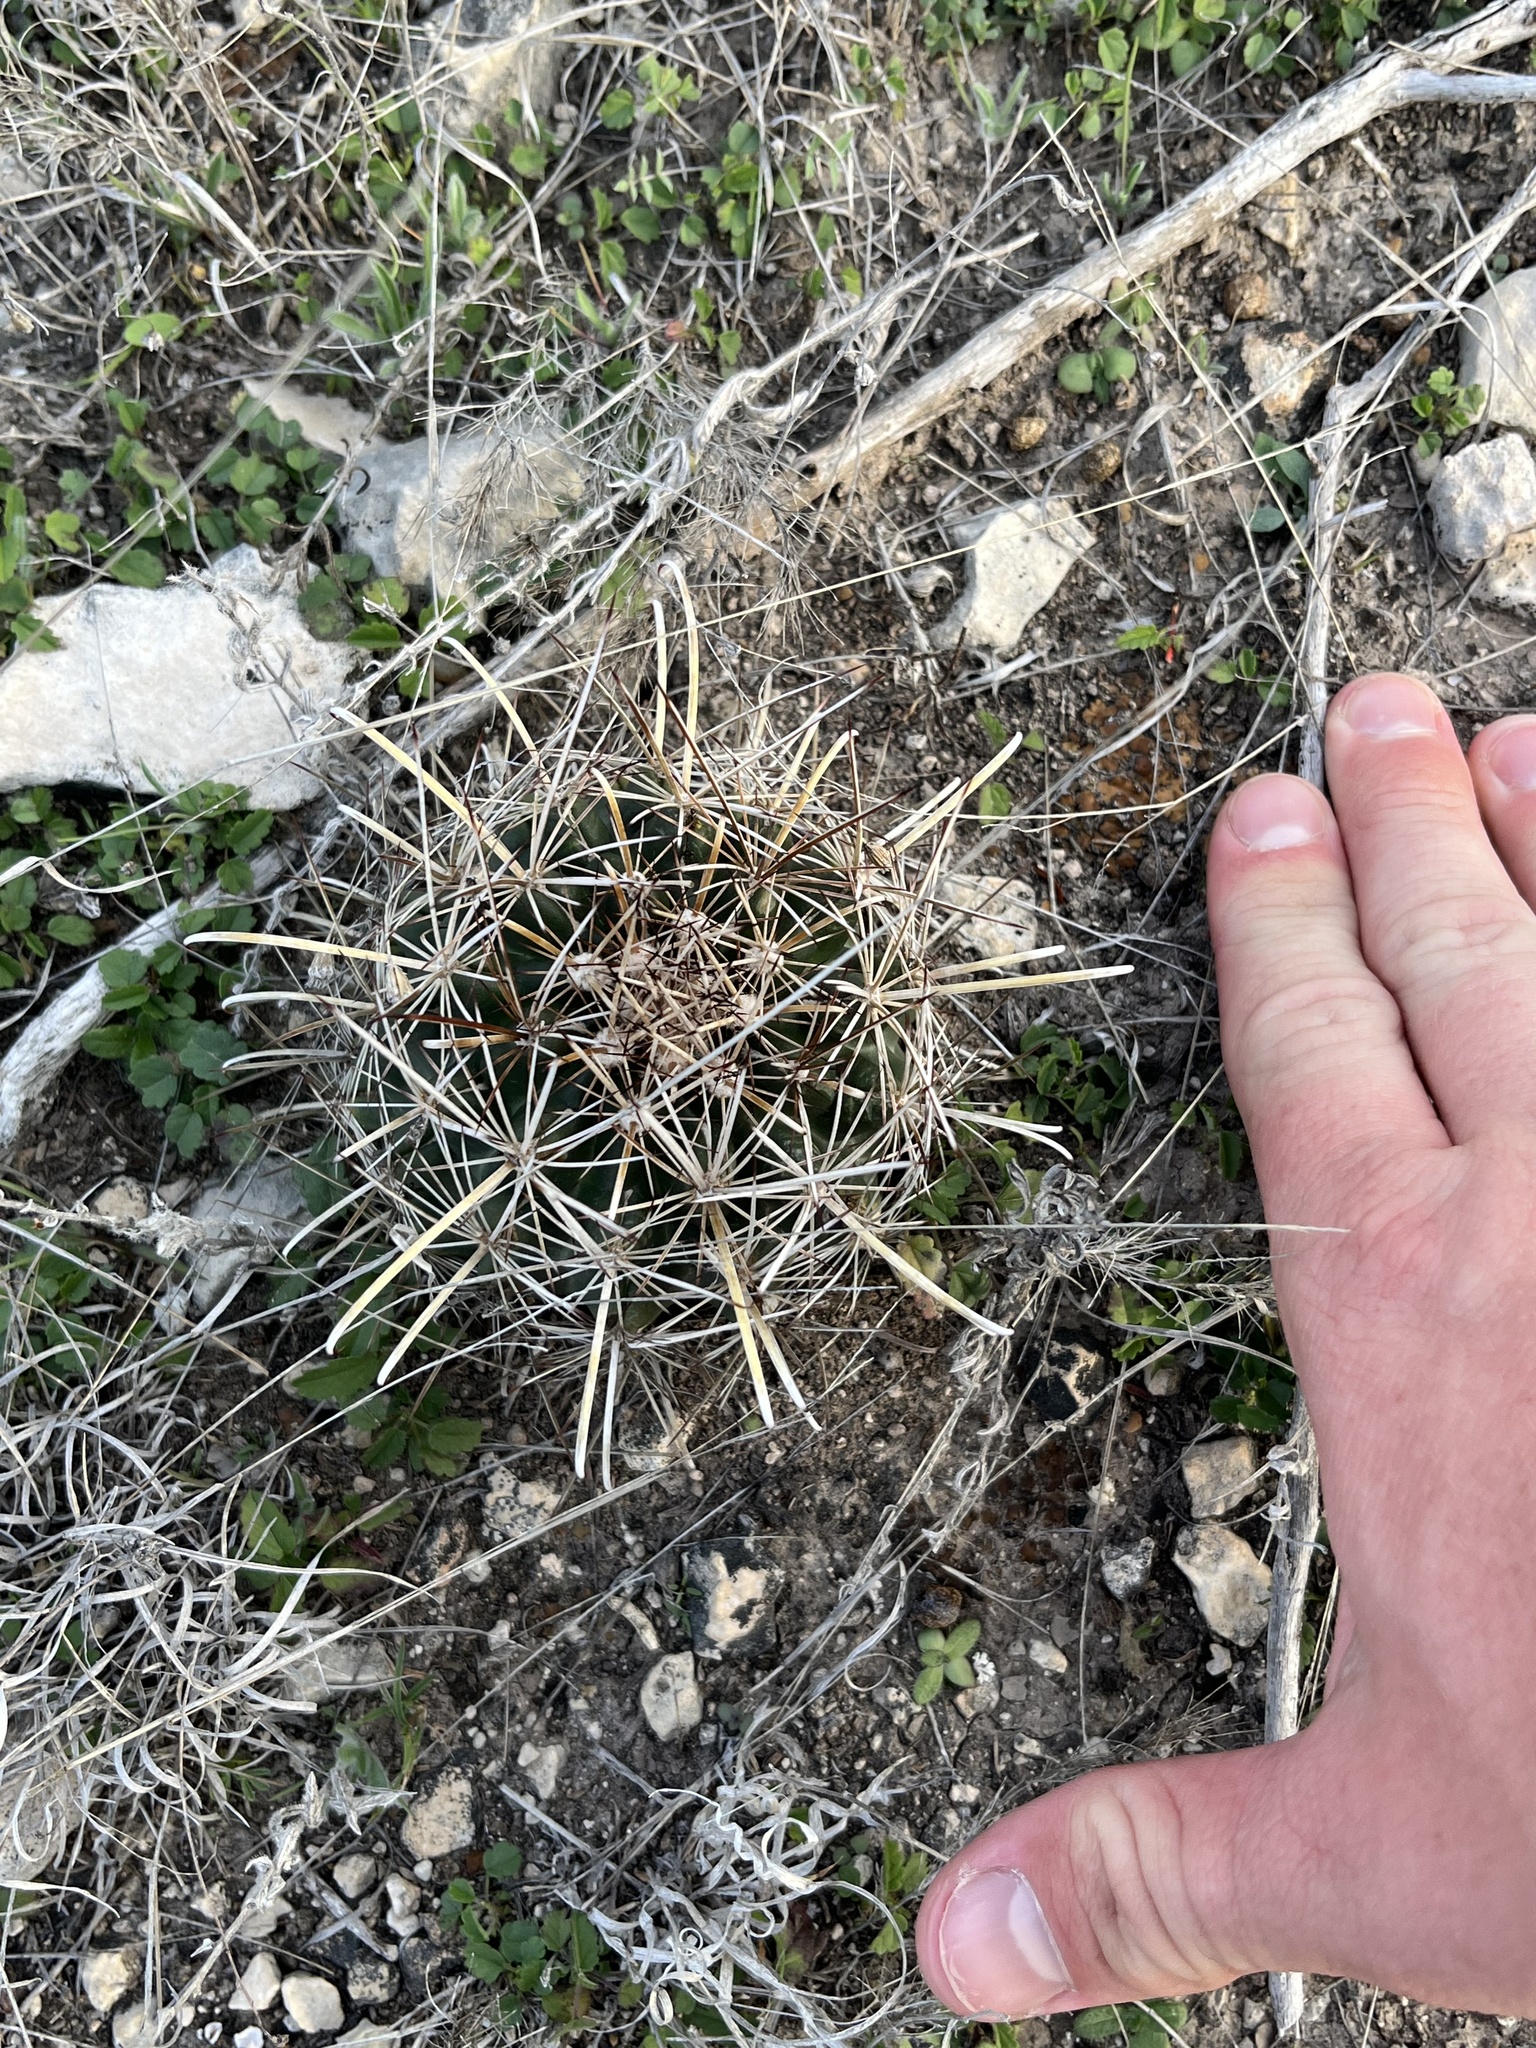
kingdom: Plantae
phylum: Tracheophyta
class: Magnoliopsida
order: Caryophyllales
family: Cactaceae
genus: Sclerocactus
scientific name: Sclerocactus brevihamatus
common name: Engelmann's fishhook cactus
